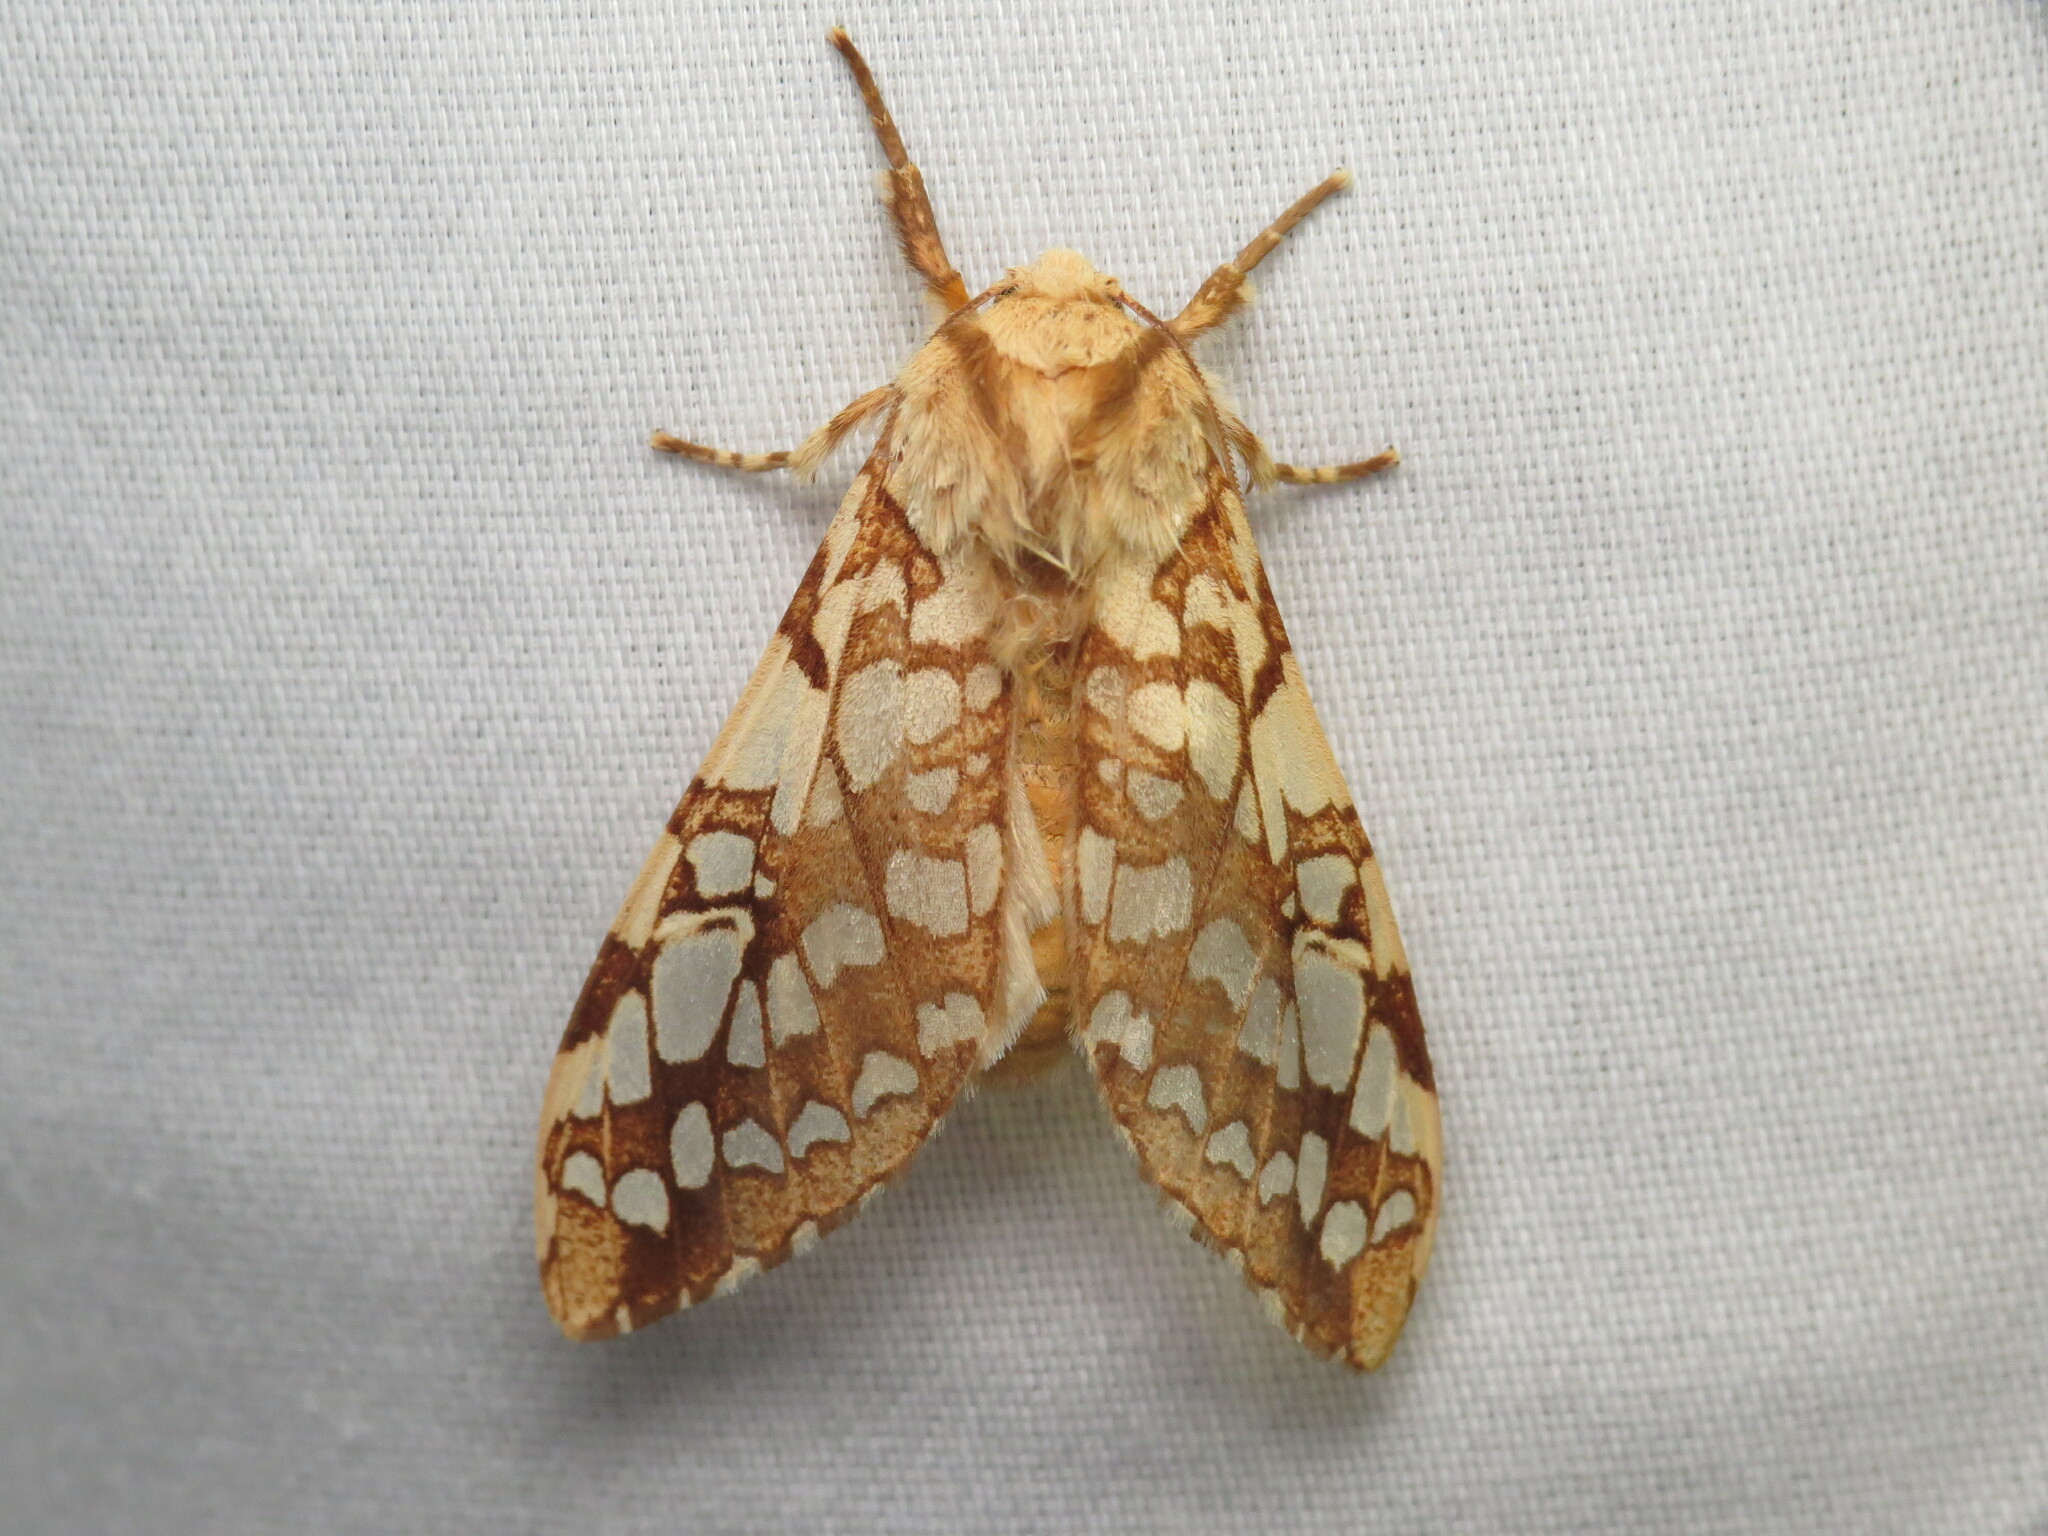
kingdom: Animalia
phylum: Arthropoda
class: Insecta
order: Lepidoptera
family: Erebidae
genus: Lophocampa
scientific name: Lophocampa caryae
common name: Hickory tussock moth
